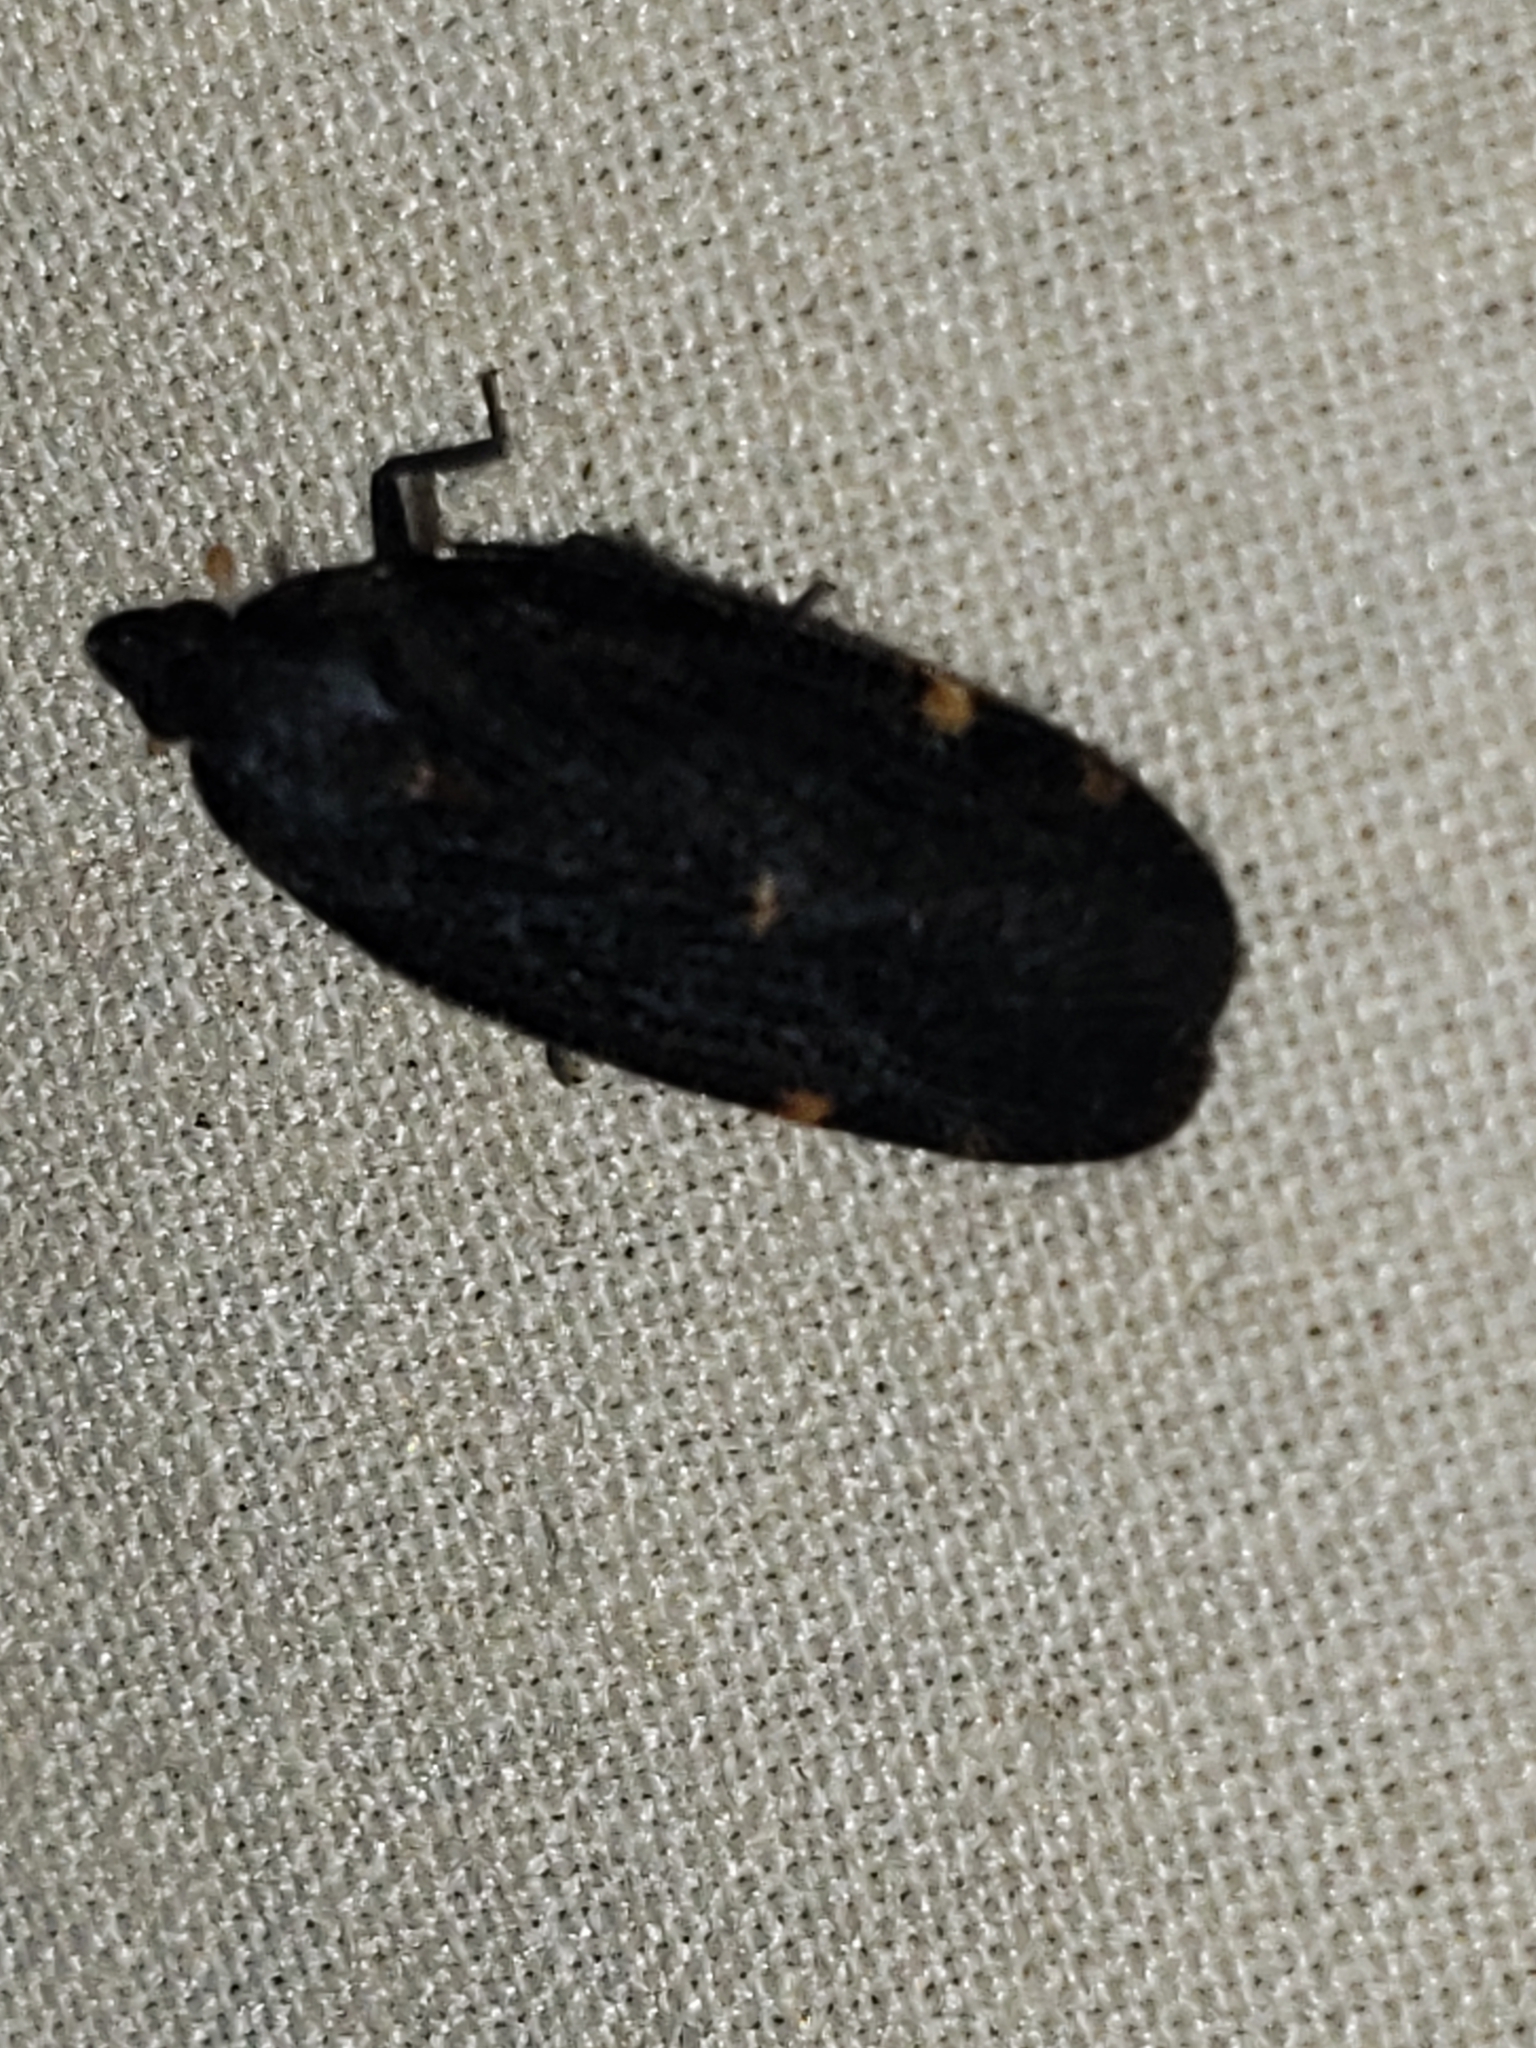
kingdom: Animalia
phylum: Arthropoda
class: Insecta
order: Hemiptera
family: Achilidae
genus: Cixidia
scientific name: Cixidia opaca
